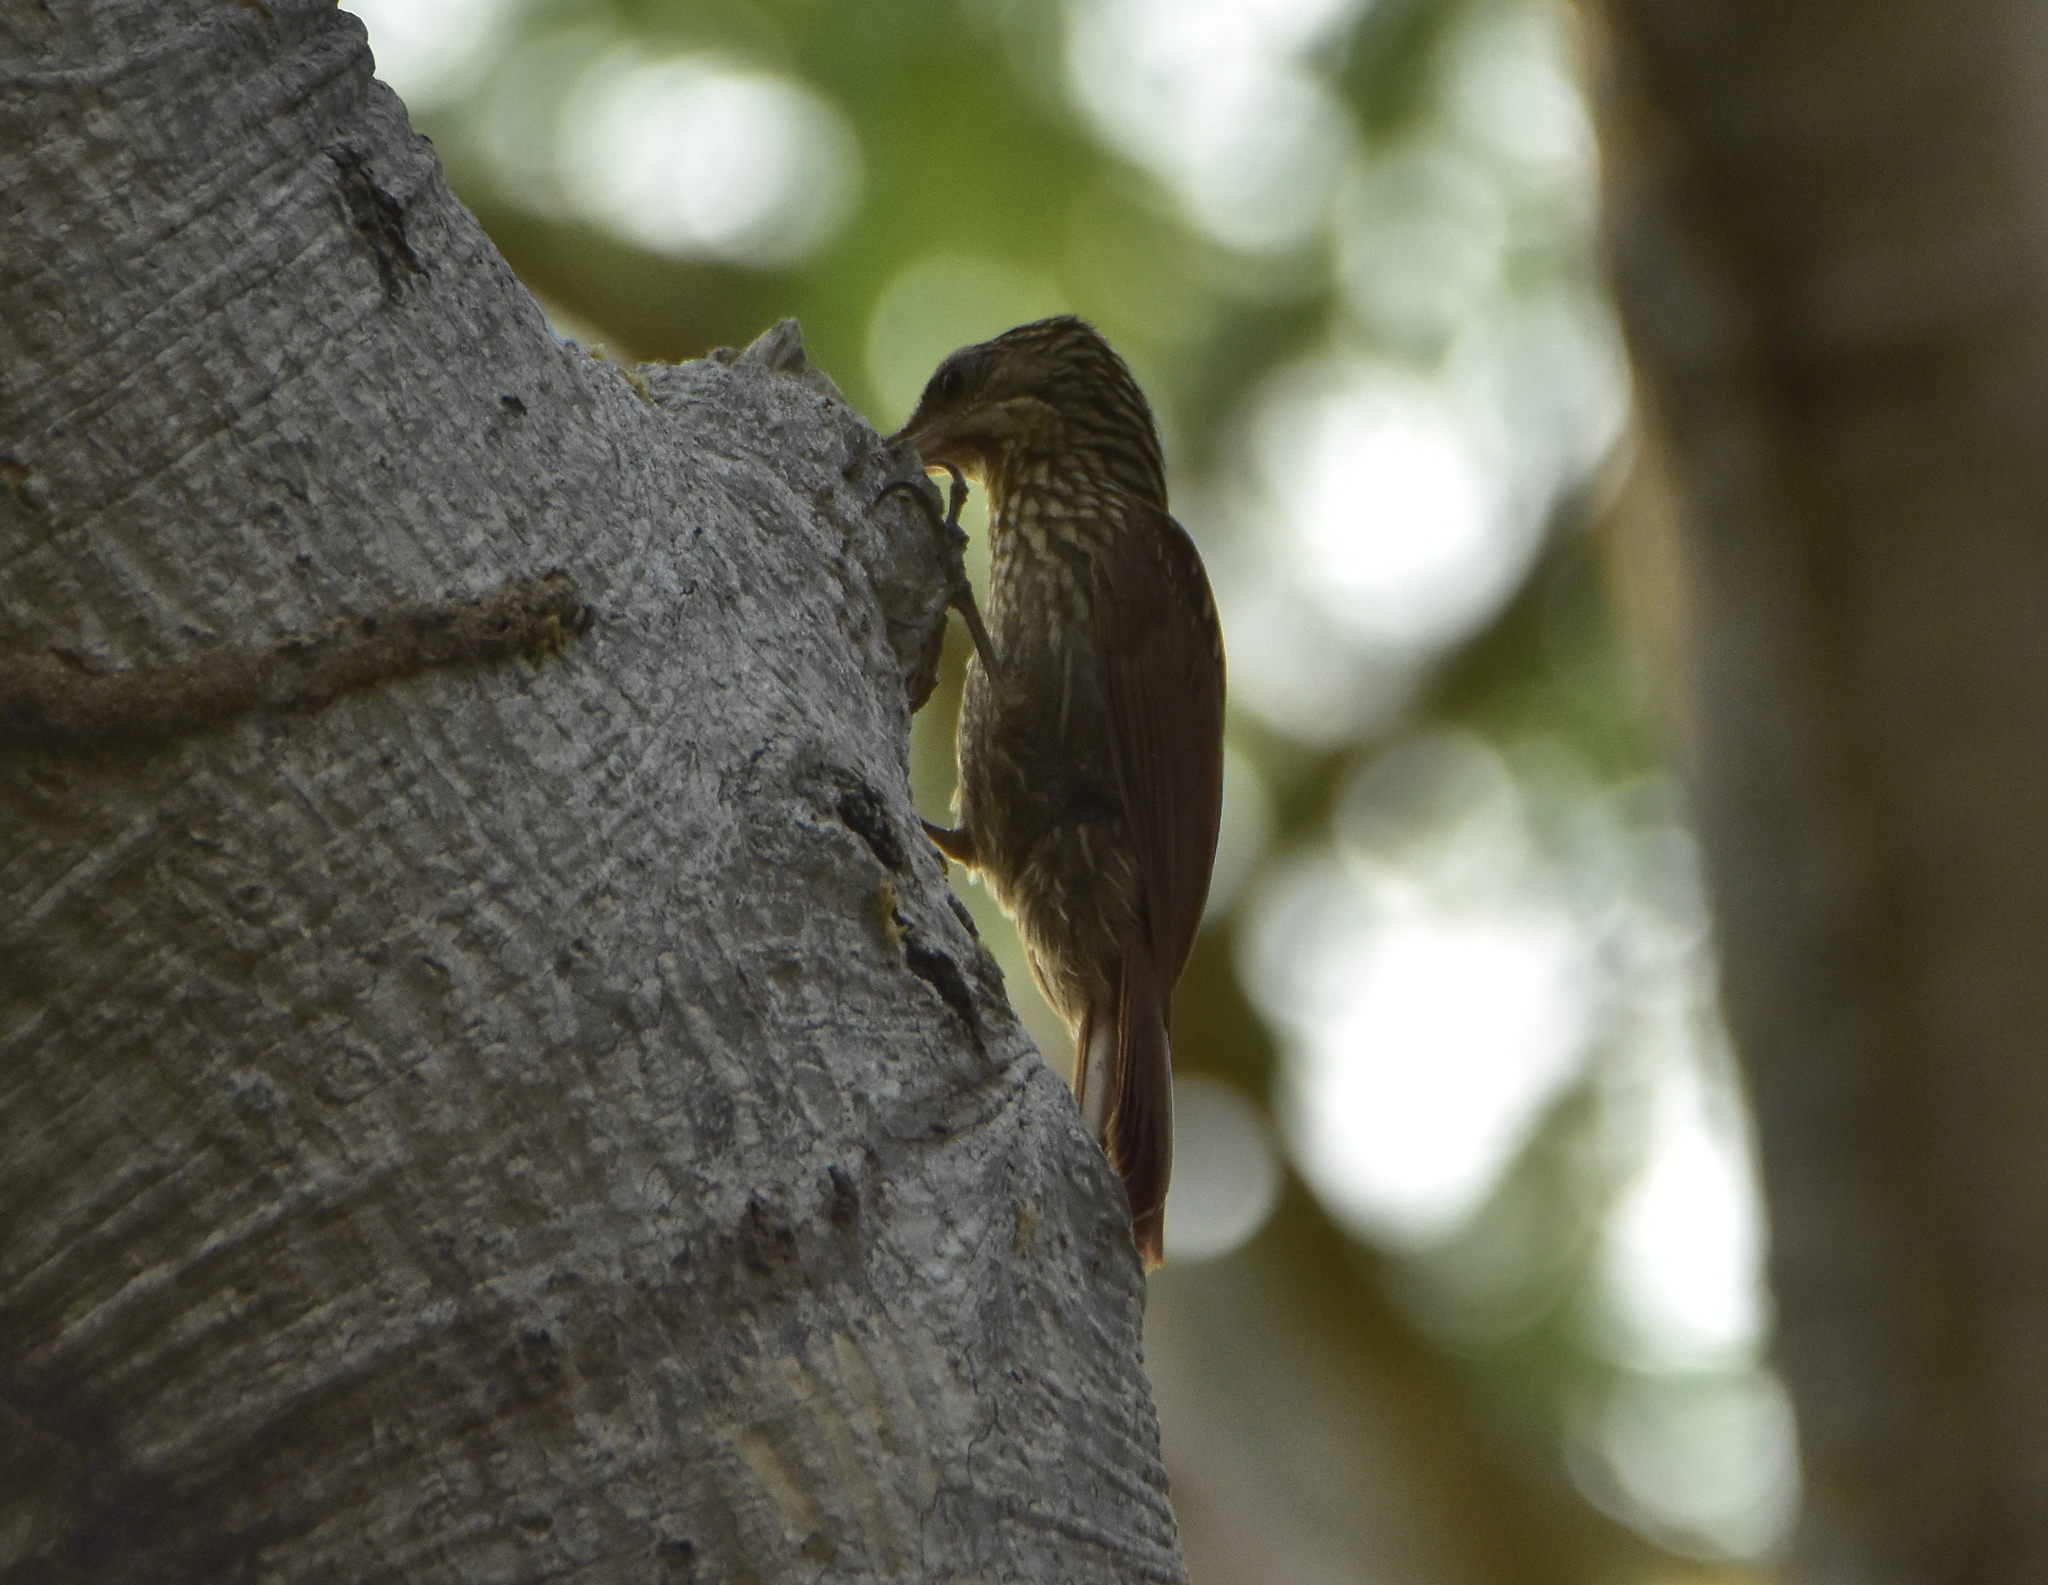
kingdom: Animalia
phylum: Chordata
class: Aves
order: Passeriformes
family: Furnariidae
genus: Xiphorhynchus
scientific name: Xiphorhynchus flavigaster
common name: Ivory-billed woodcreeper
